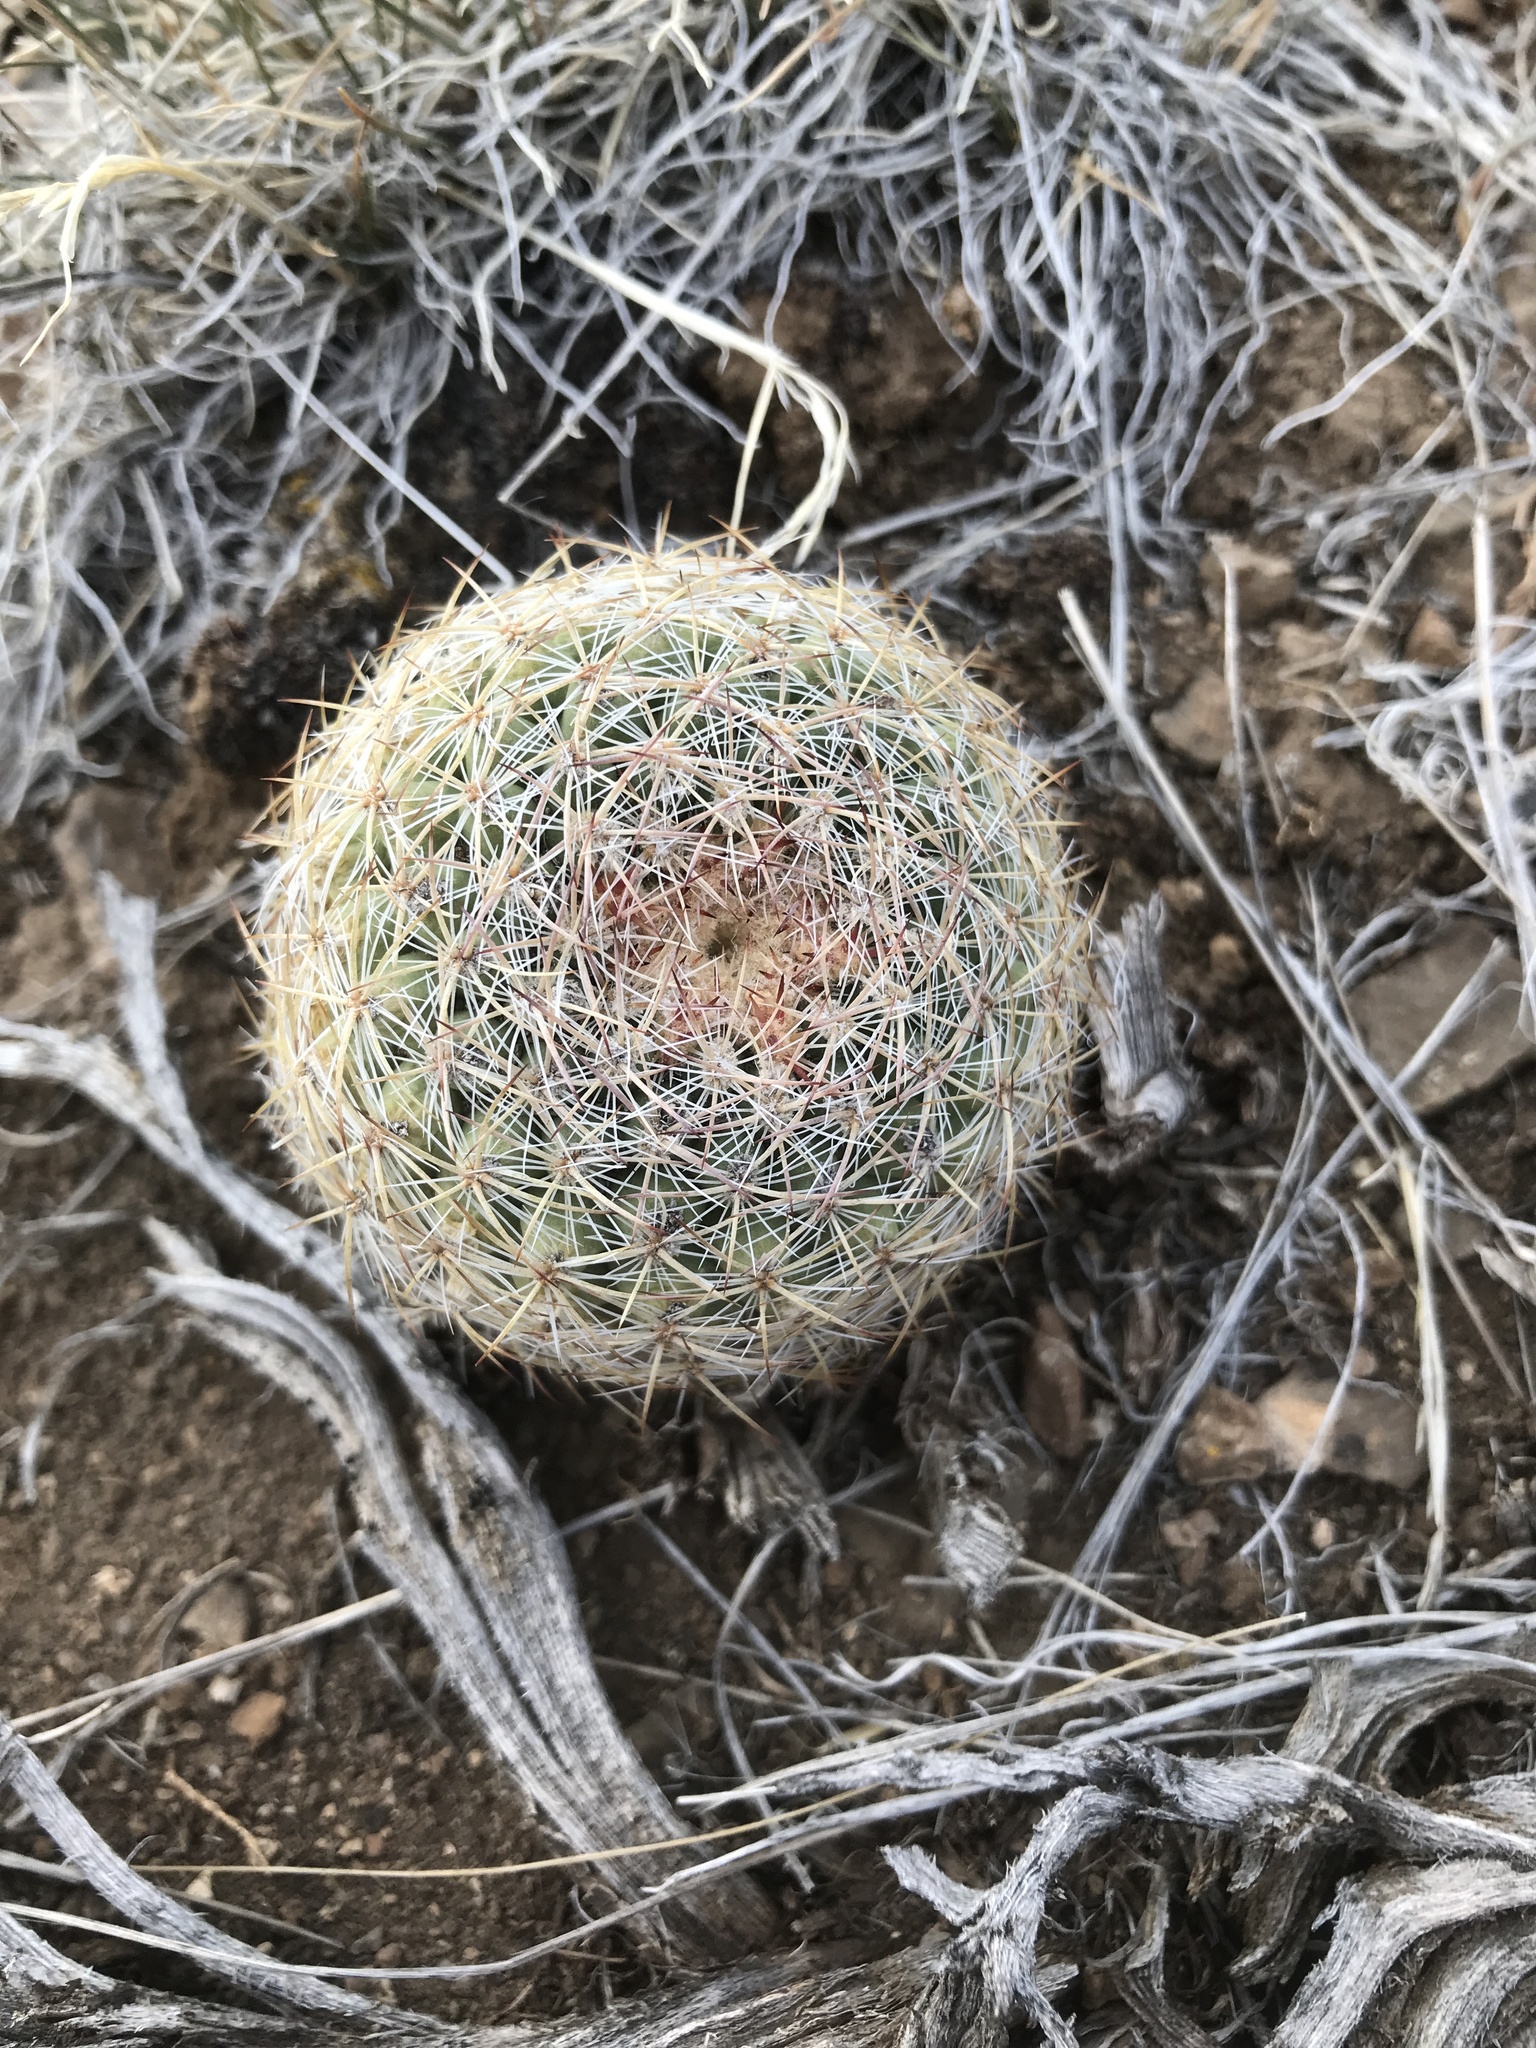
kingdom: Plantae
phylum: Tracheophyta
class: Magnoliopsida
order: Caryophyllales
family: Cactaceae
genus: Pediocactus
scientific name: Pediocactus simpsonii
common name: Simpson's hedgehog cactus
